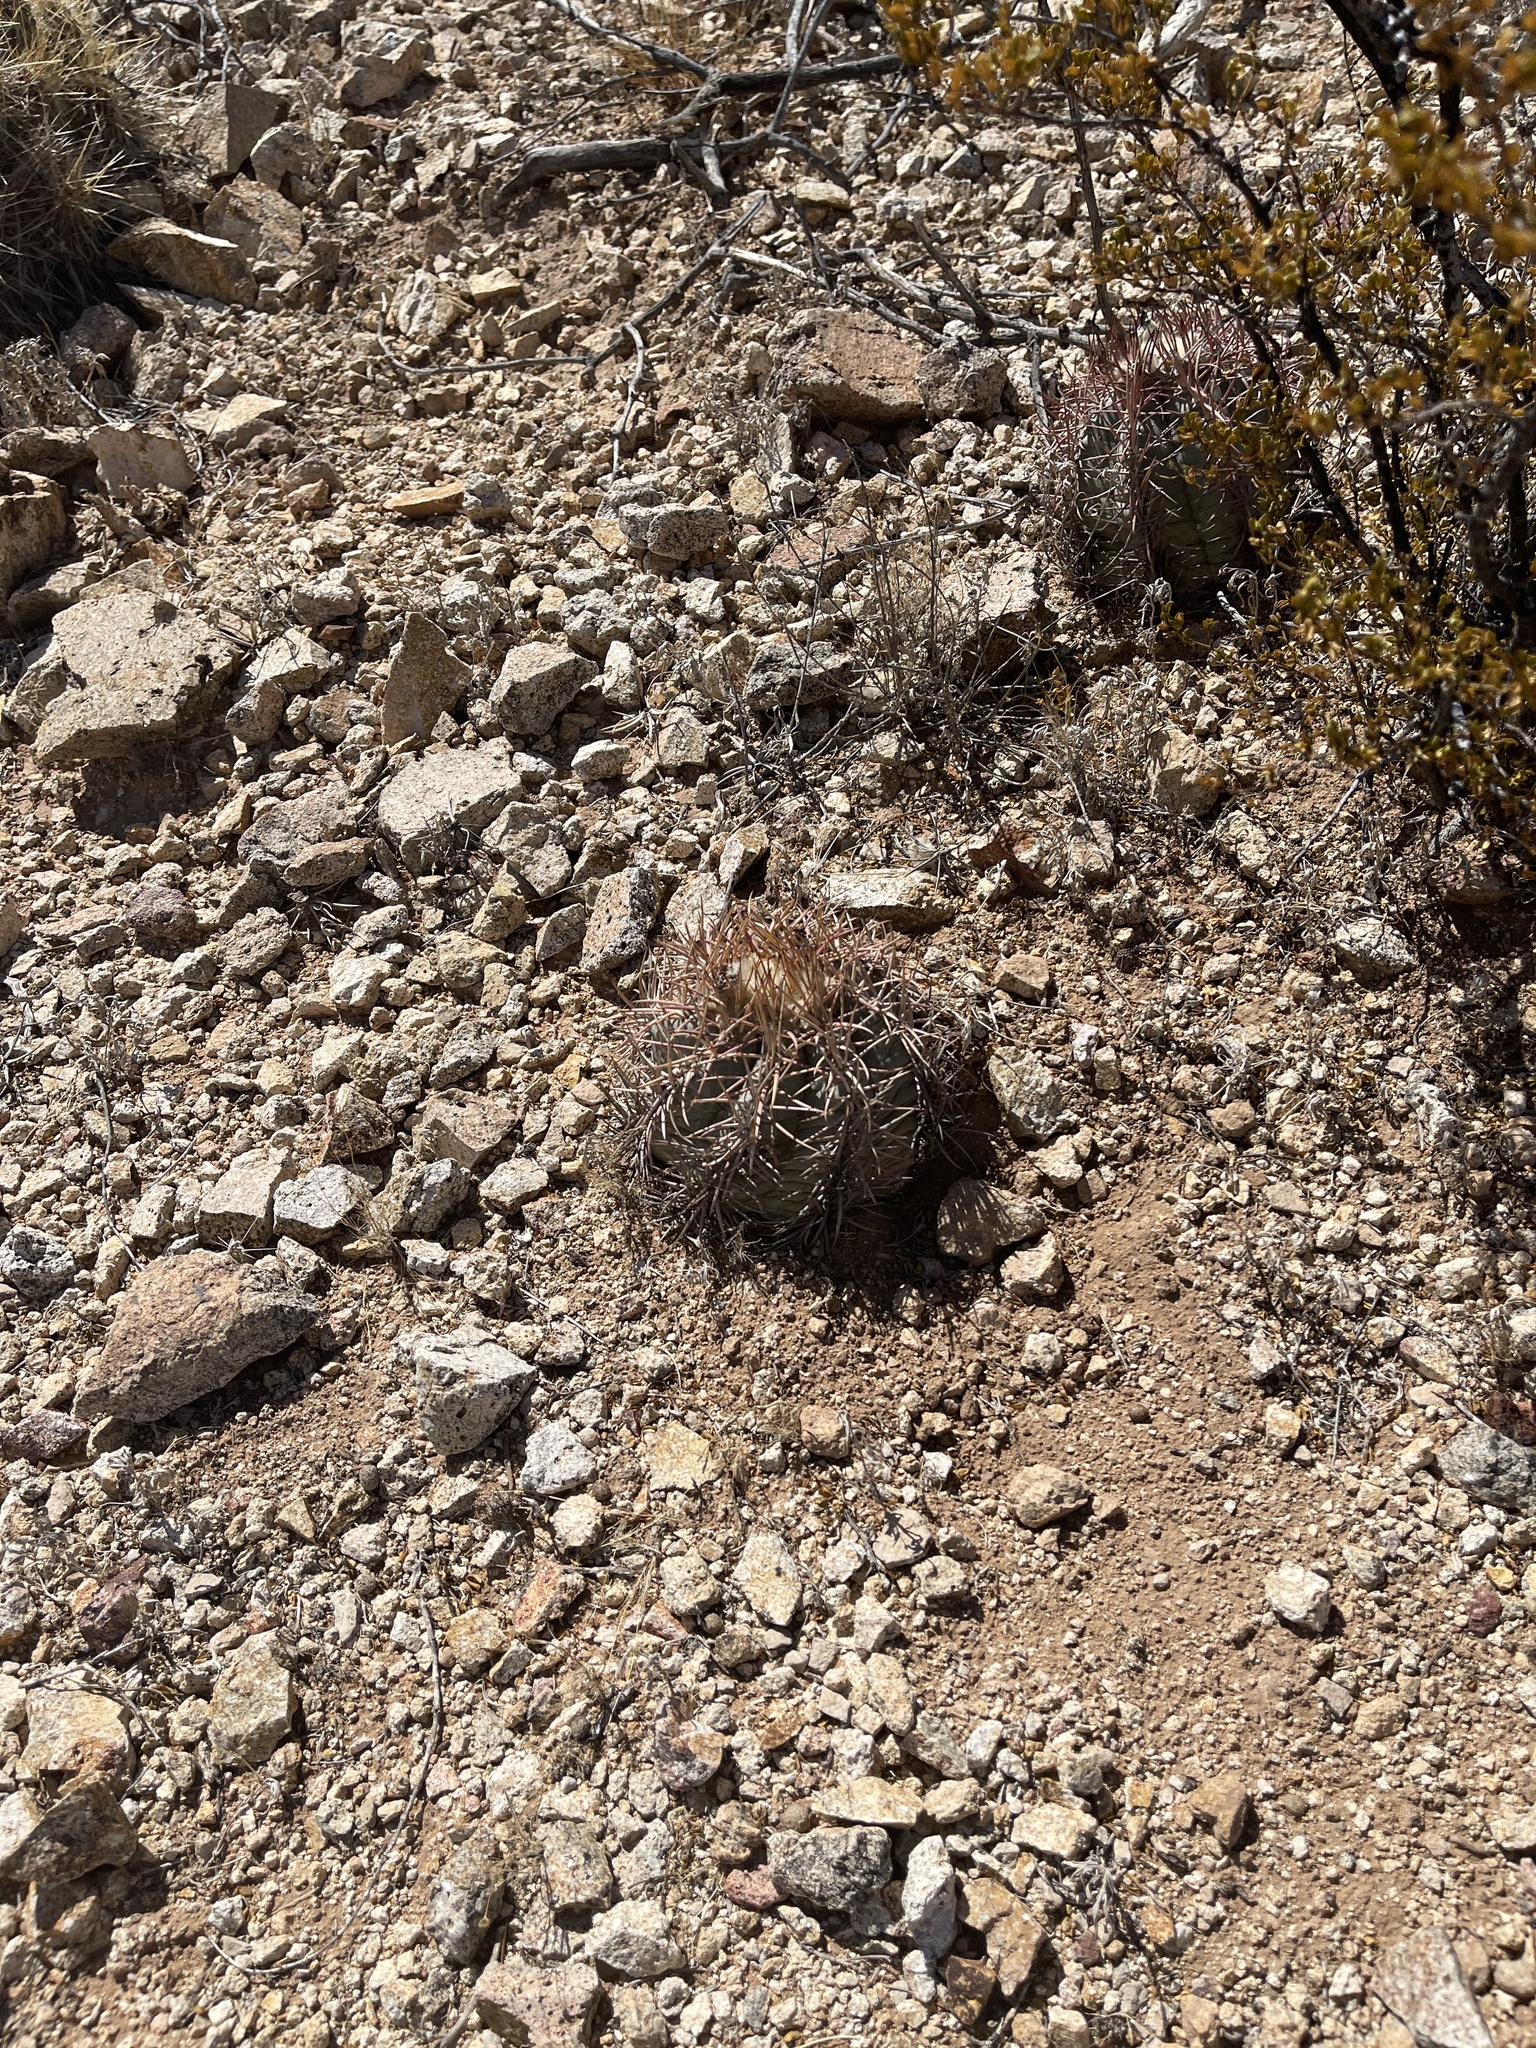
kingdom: Plantae
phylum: Tracheophyta
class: Magnoliopsida
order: Caryophyllales
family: Cactaceae
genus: Echinocactus
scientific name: Echinocactus horizonthalonius
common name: Devilshead
